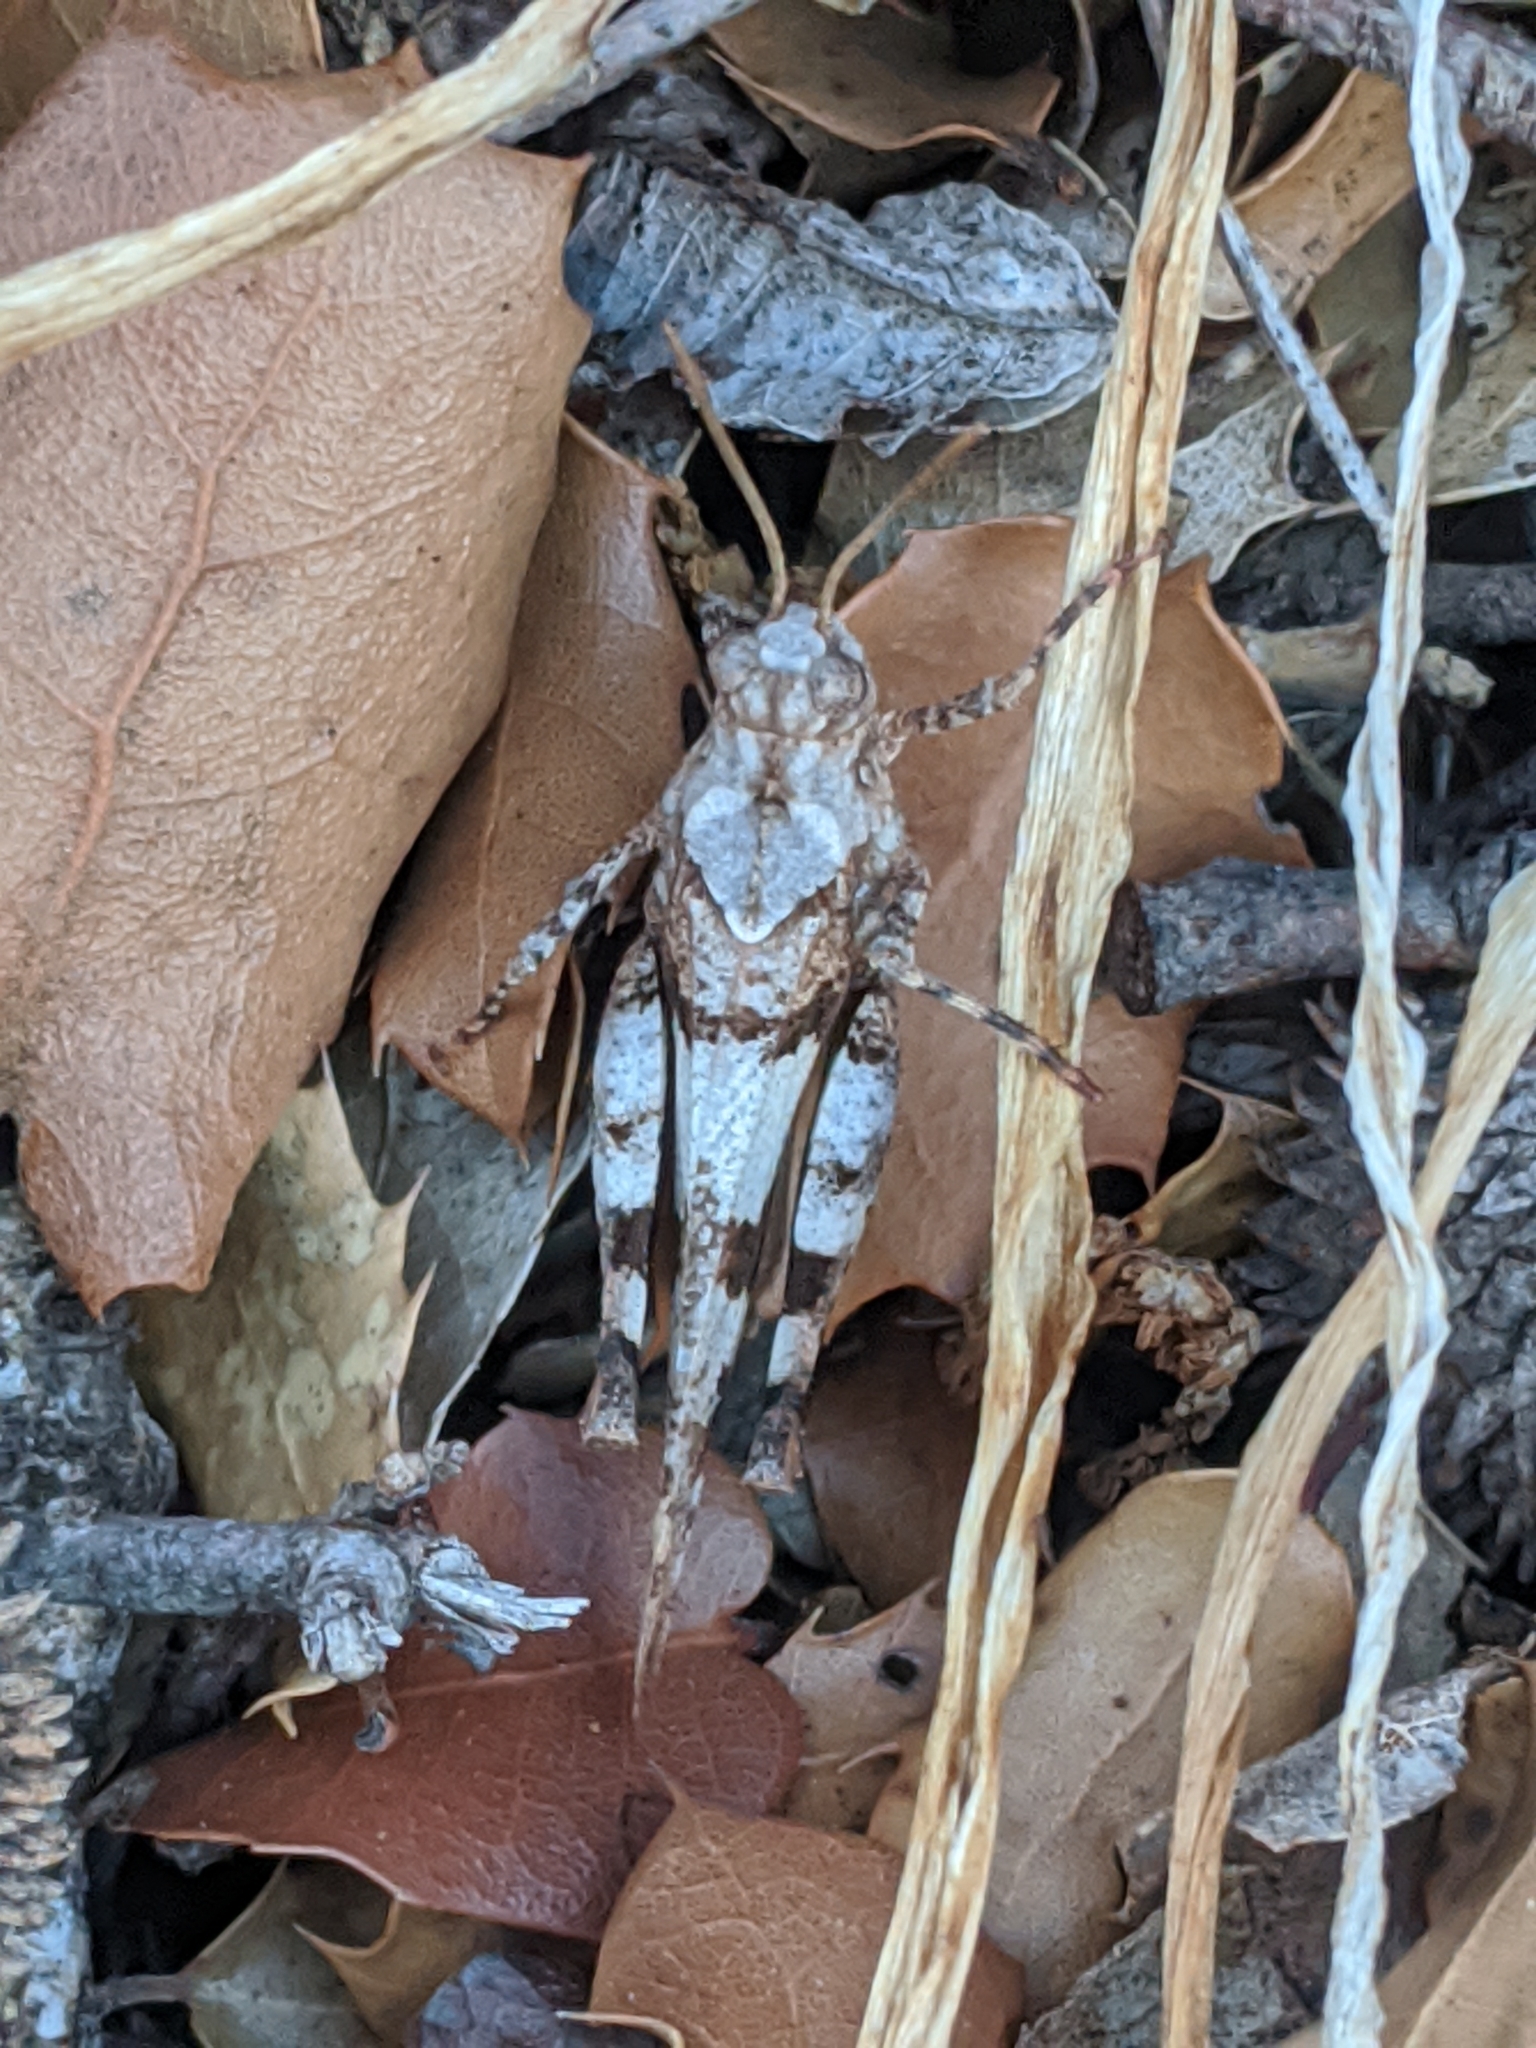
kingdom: Animalia
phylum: Arthropoda
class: Insecta
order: Orthoptera
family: Acrididae
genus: Oedipoda
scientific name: Oedipoda caerulescens
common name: Blue-winged grasshopper
